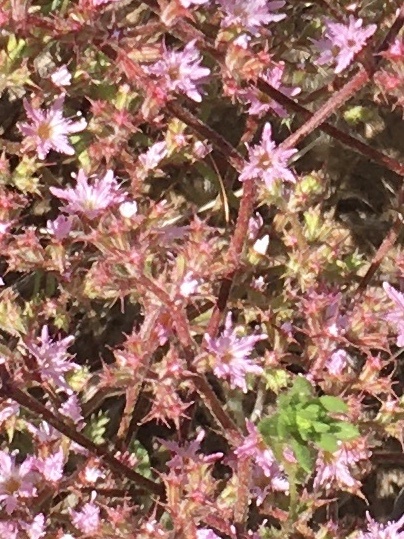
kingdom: Plantae
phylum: Tracheophyta
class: Magnoliopsida
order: Caryophyllales
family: Polygonaceae
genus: Chorizanthe
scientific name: Chorizanthe fimbriata
